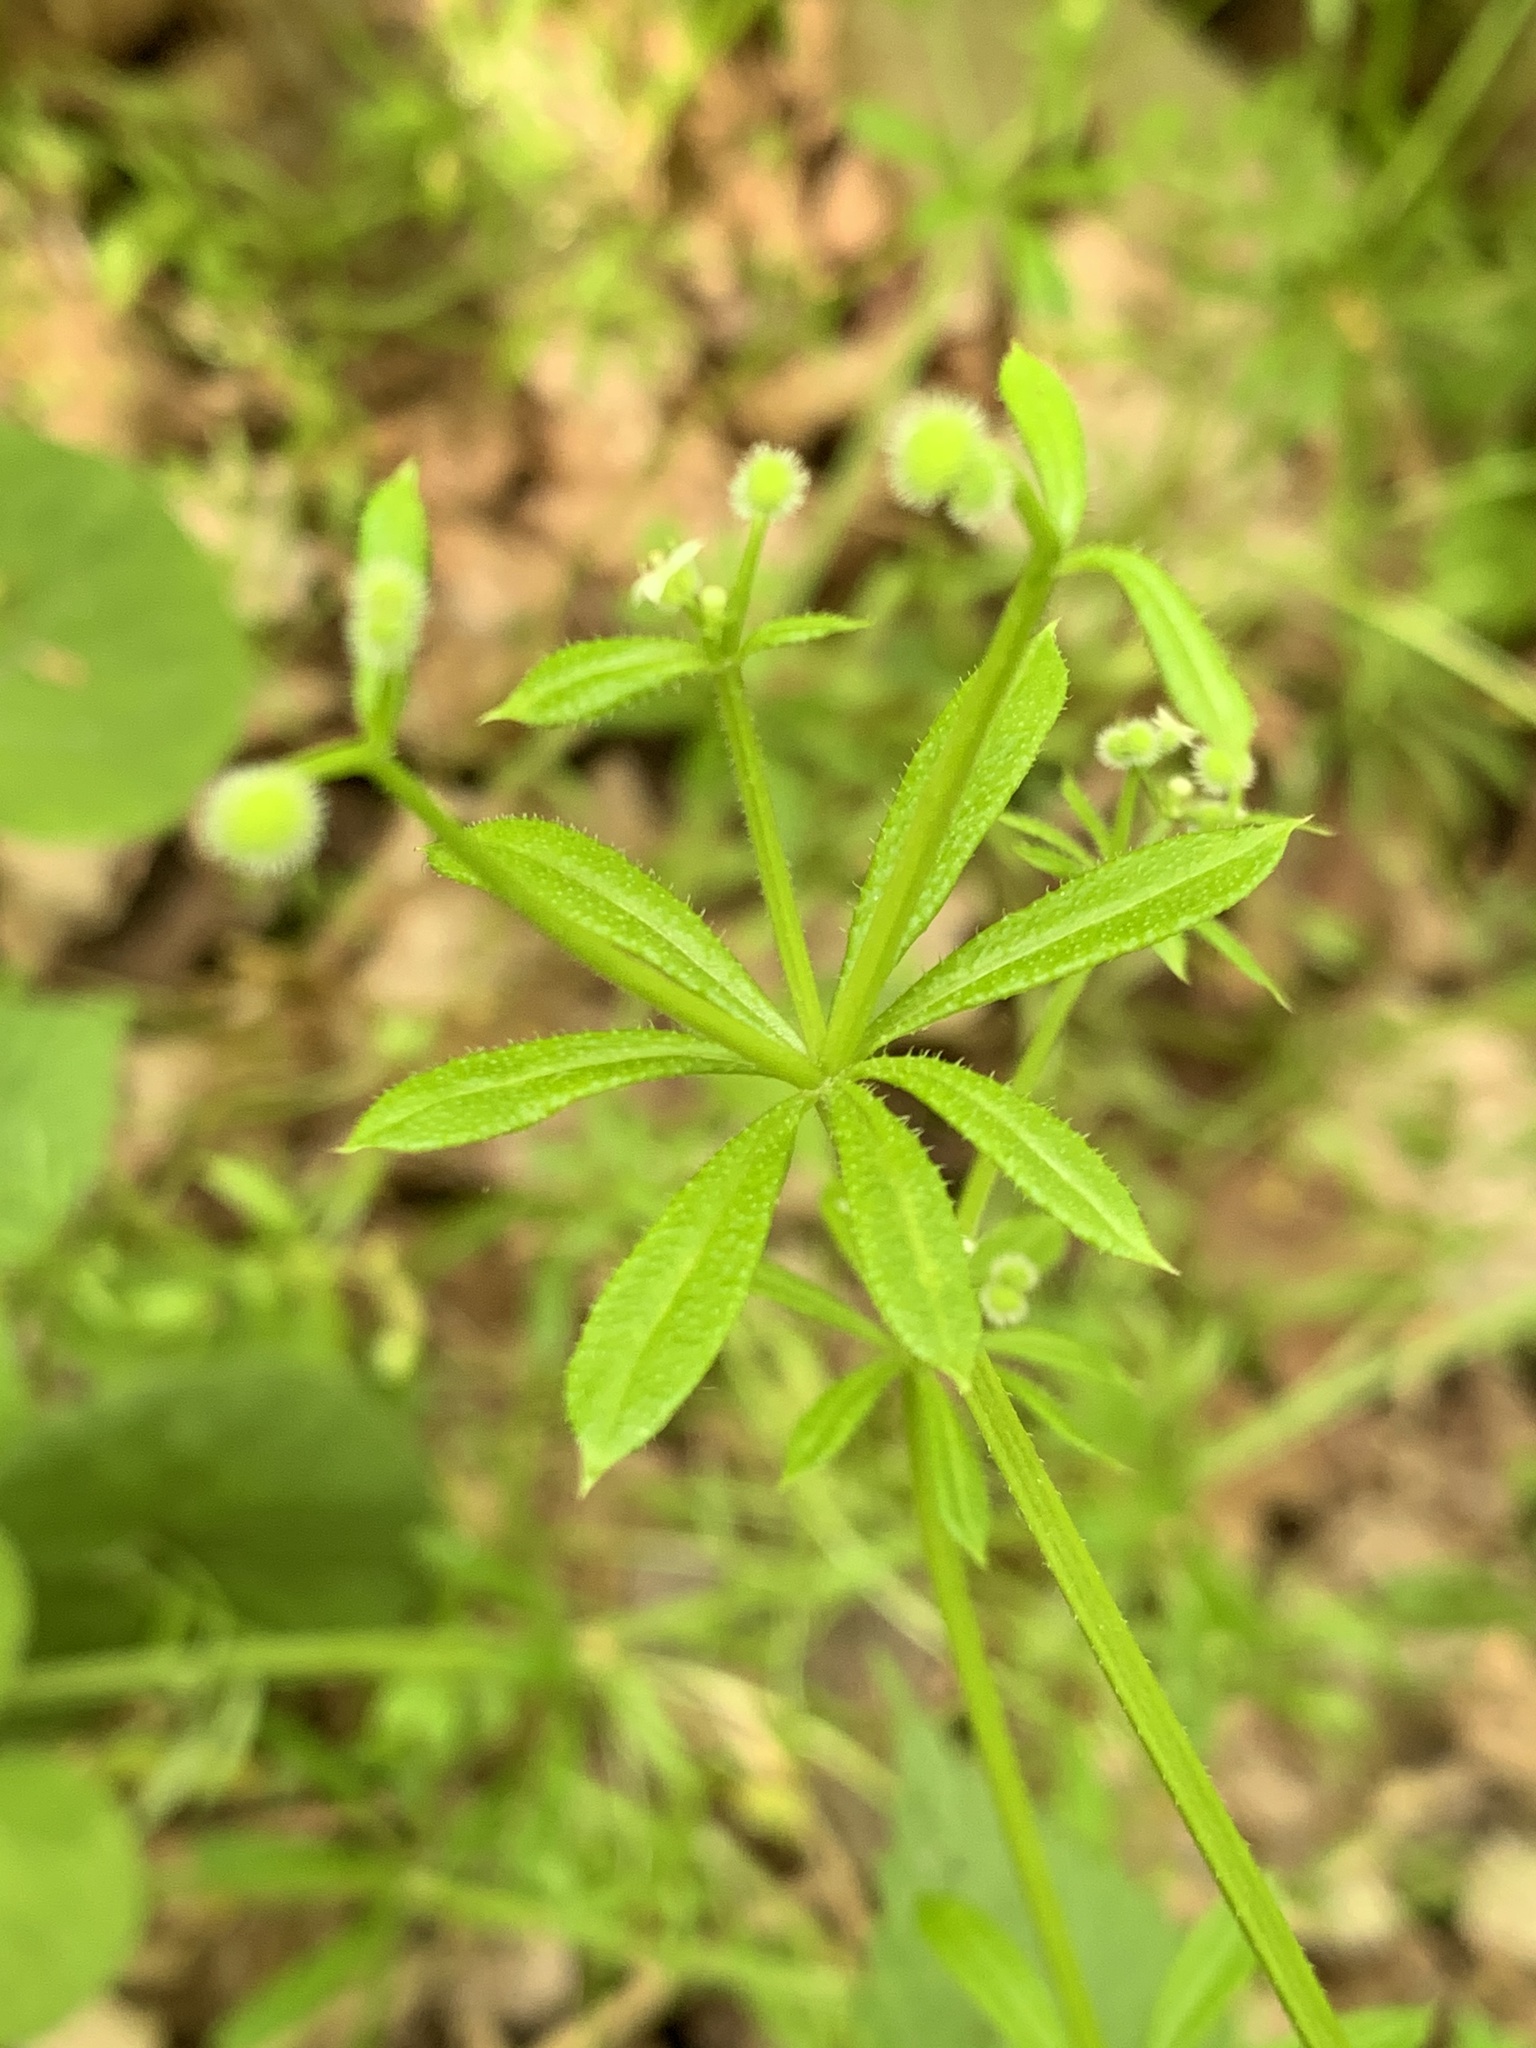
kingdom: Plantae
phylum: Tracheophyta
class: Magnoliopsida
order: Gentianales
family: Rubiaceae
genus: Galium
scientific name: Galium aparine
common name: Cleavers
